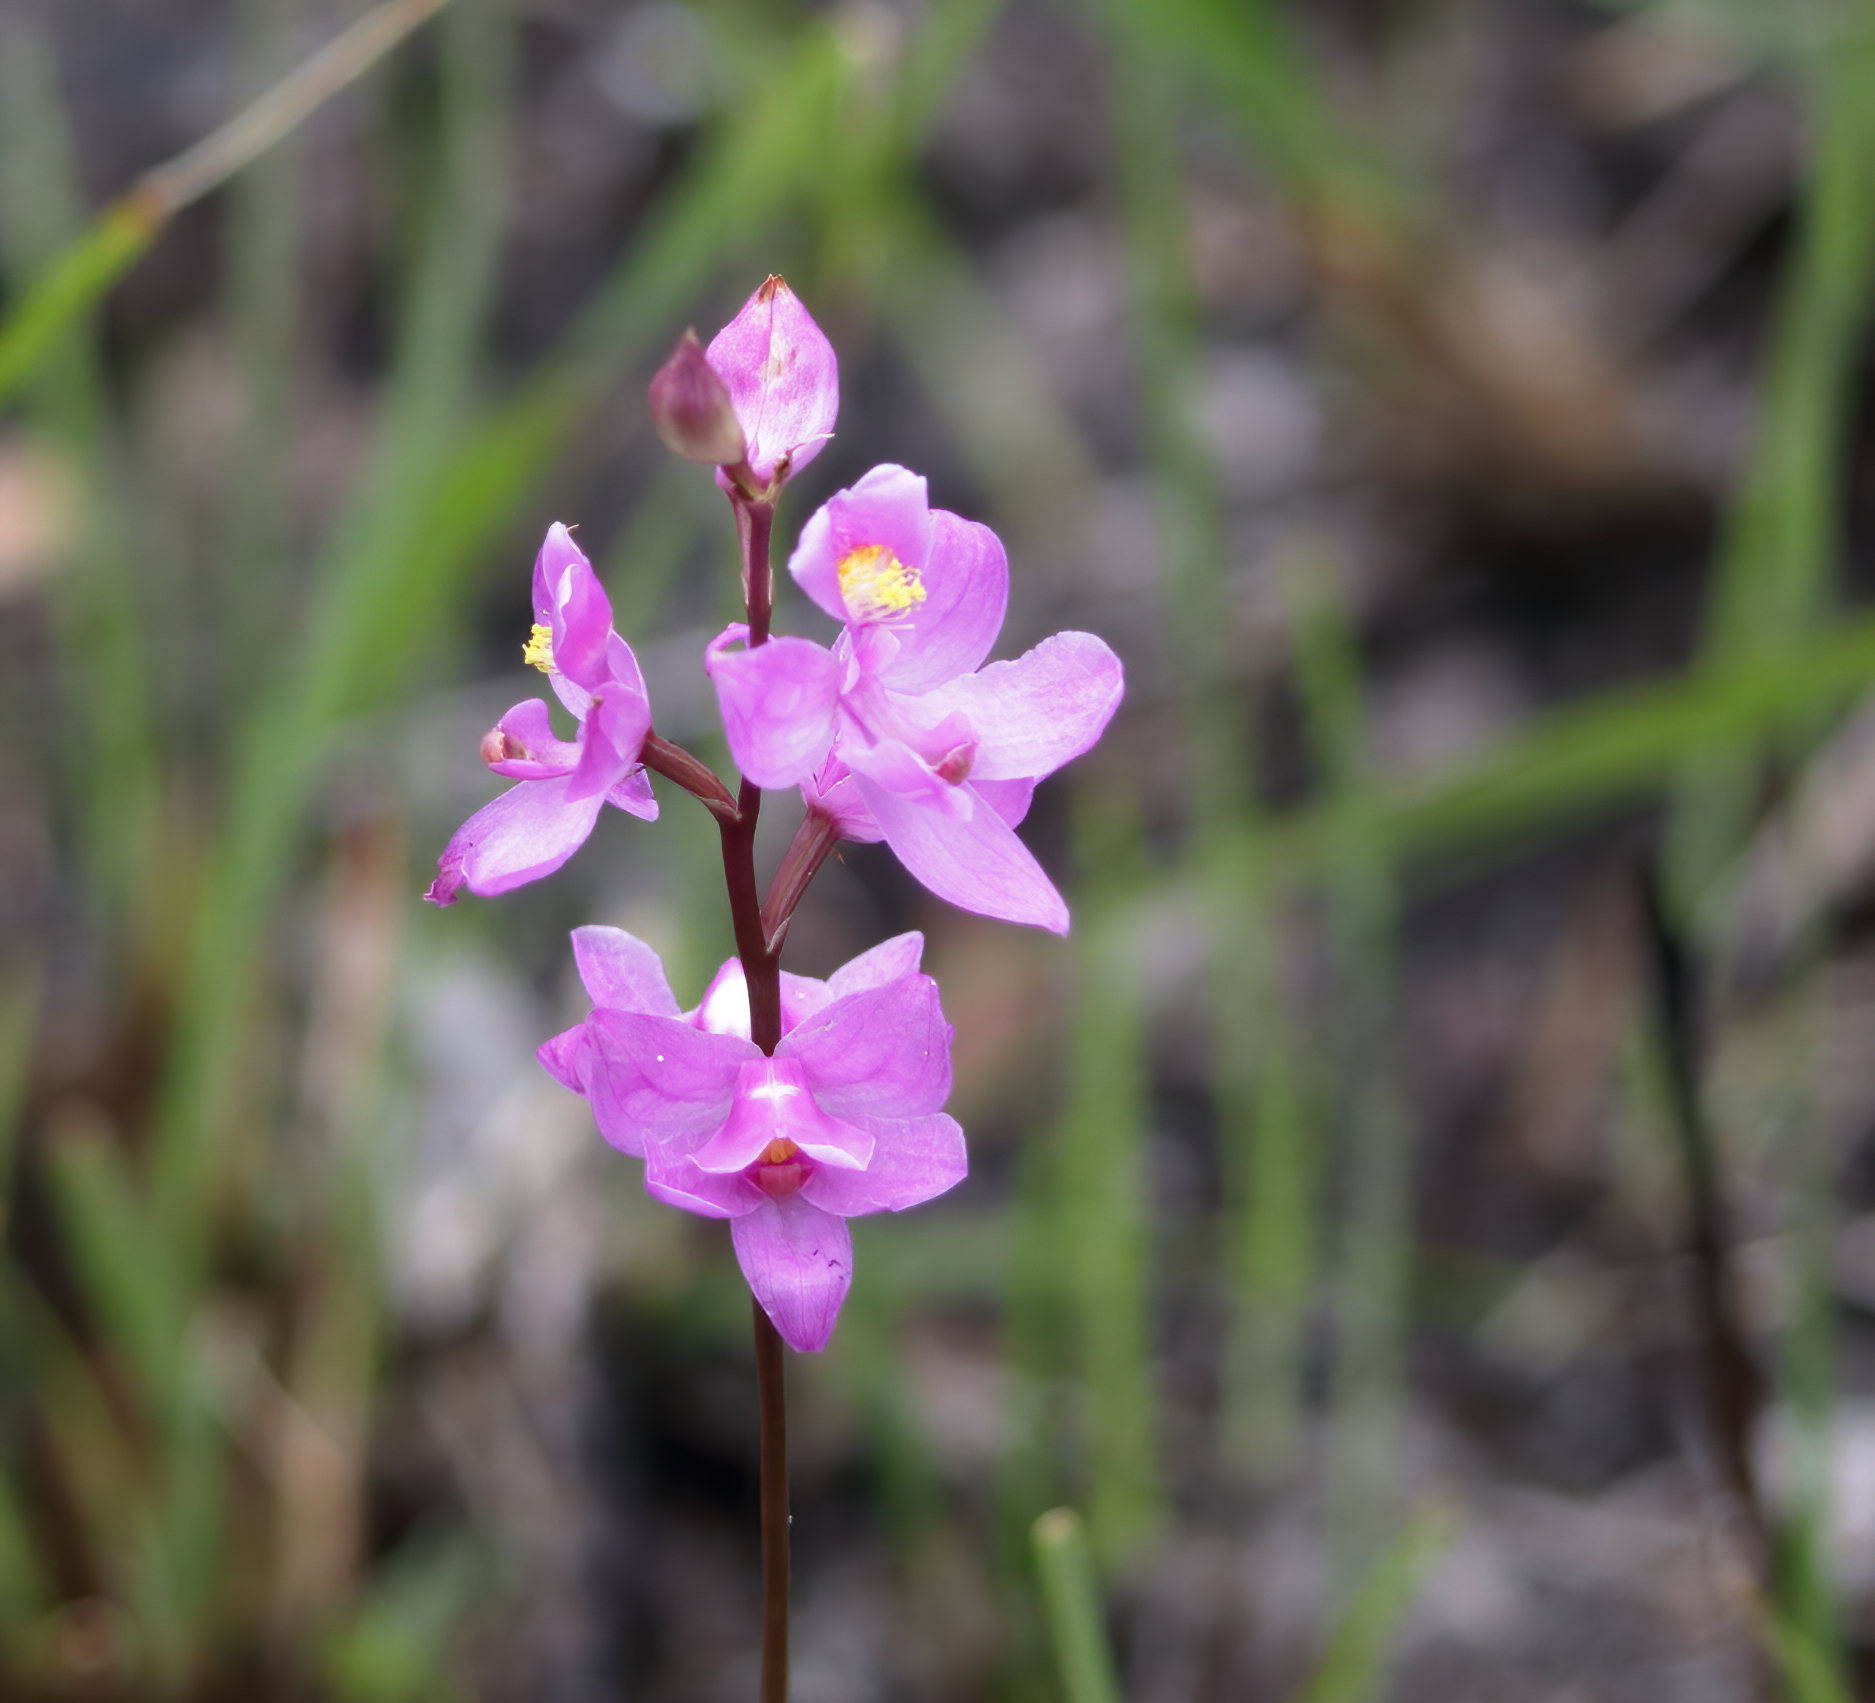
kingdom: Plantae
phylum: Tracheophyta
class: Liliopsida
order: Asparagales
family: Orchidaceae
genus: Calopogon
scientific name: Calopogon multiflorus
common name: Many-flowered grass-pink orchid
